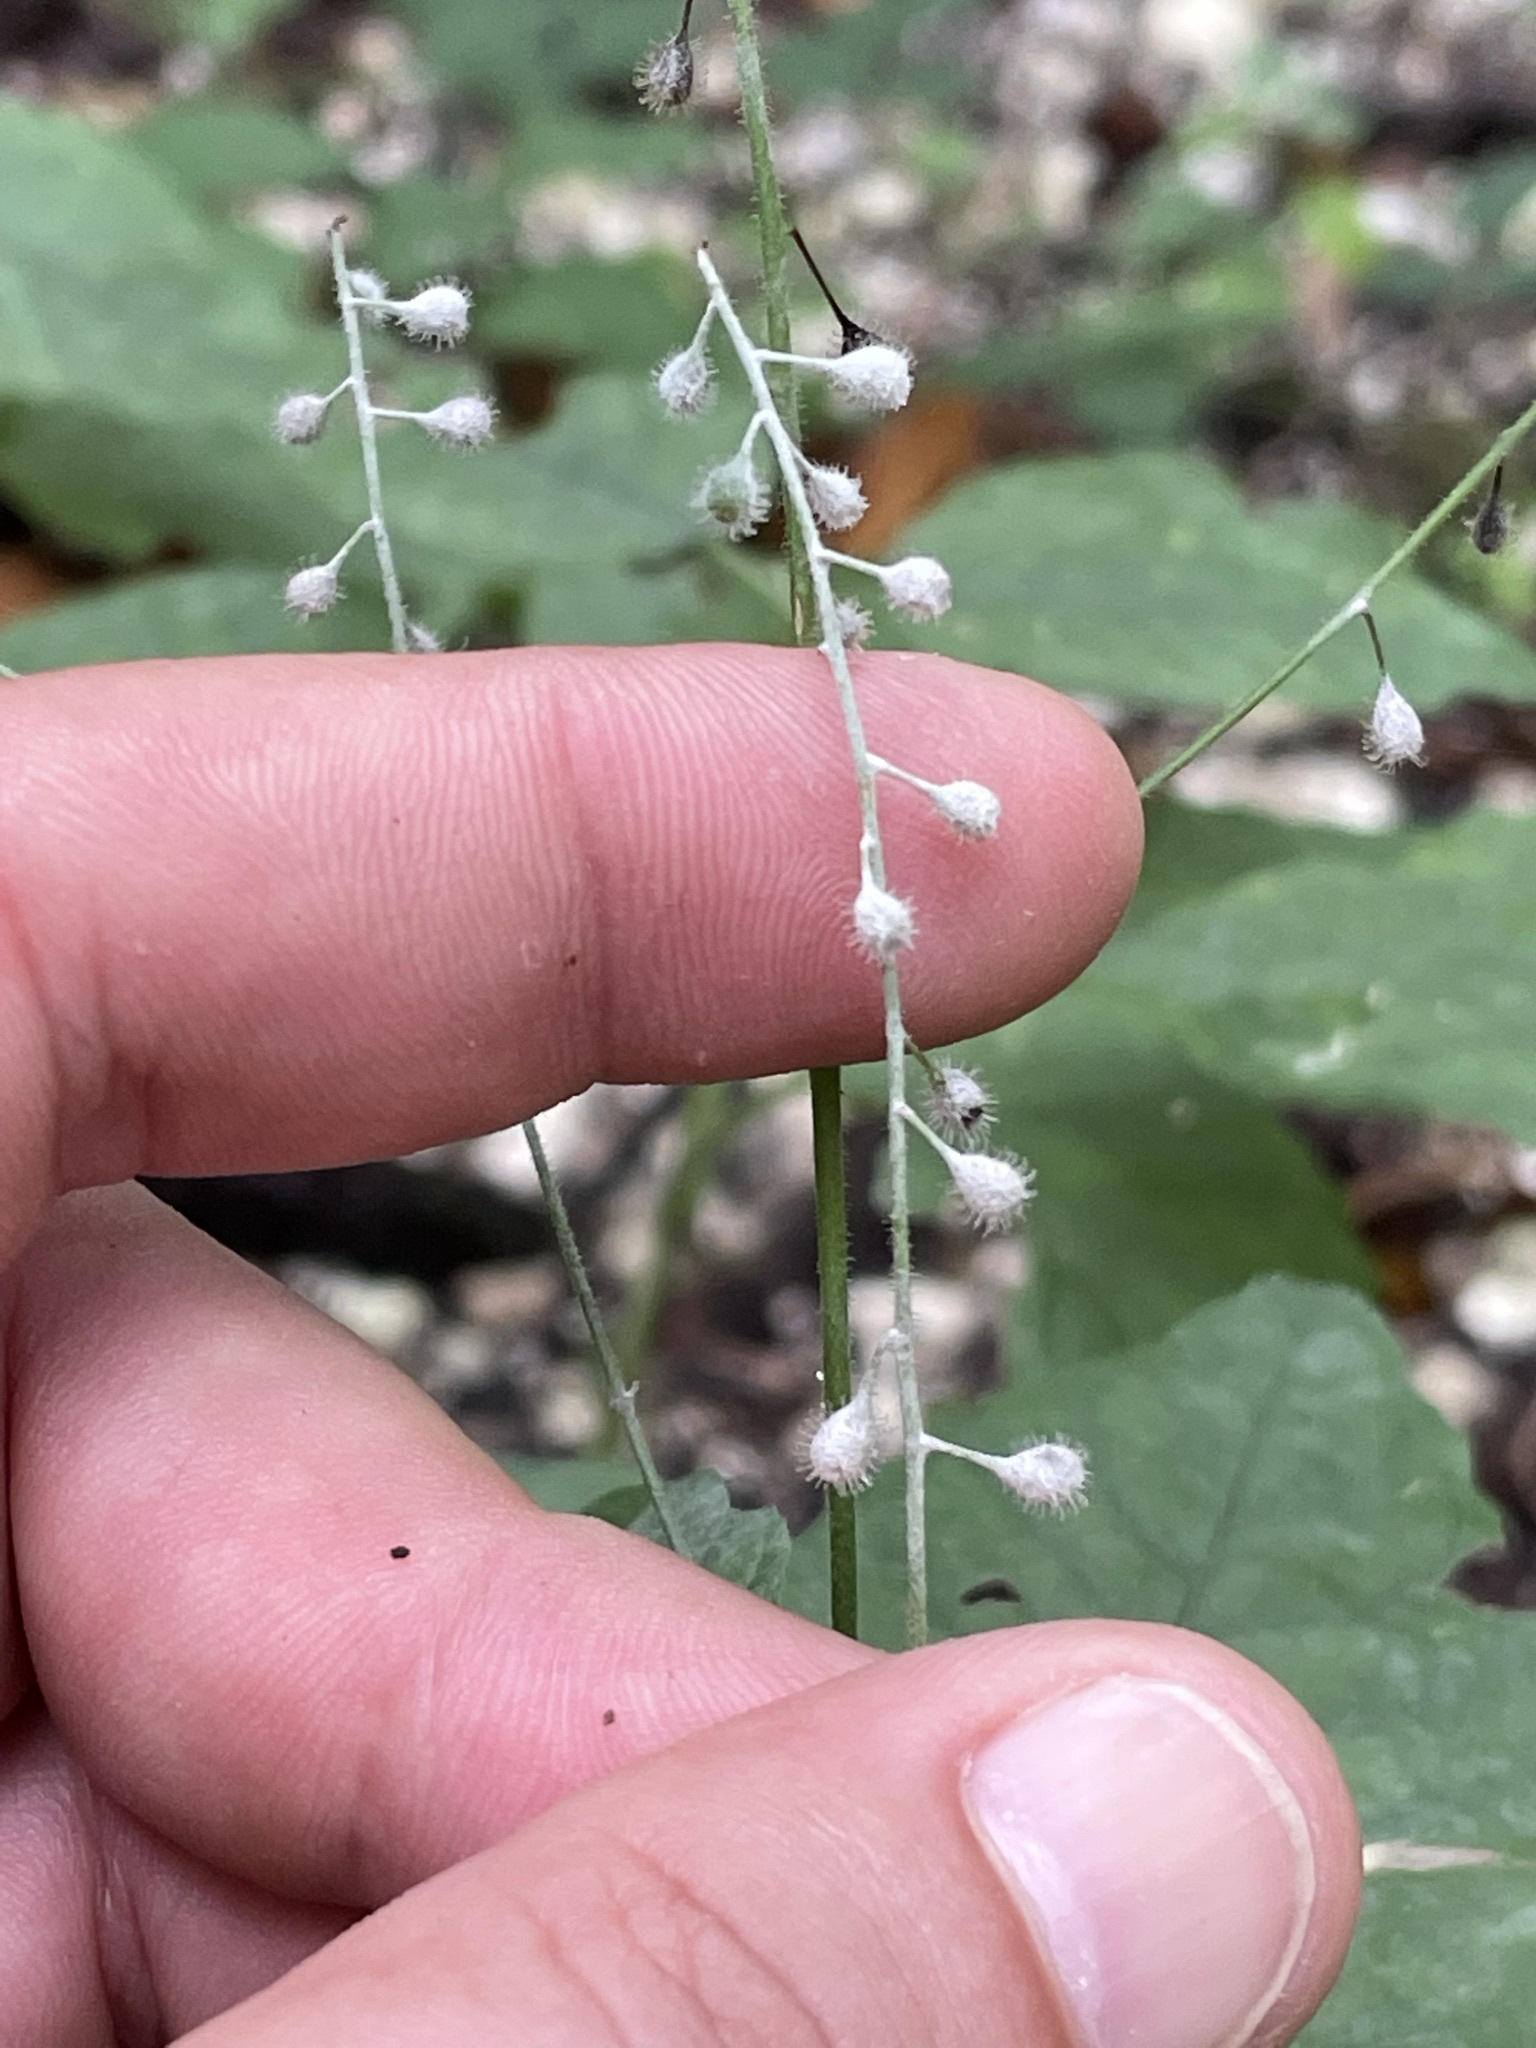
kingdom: Plantae
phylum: Tracheophyta
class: Magnoliopsida
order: Myrtales
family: Onagraceae
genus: Circaea
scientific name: Circaea lutetiana
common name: Enchanter's-nightshade
